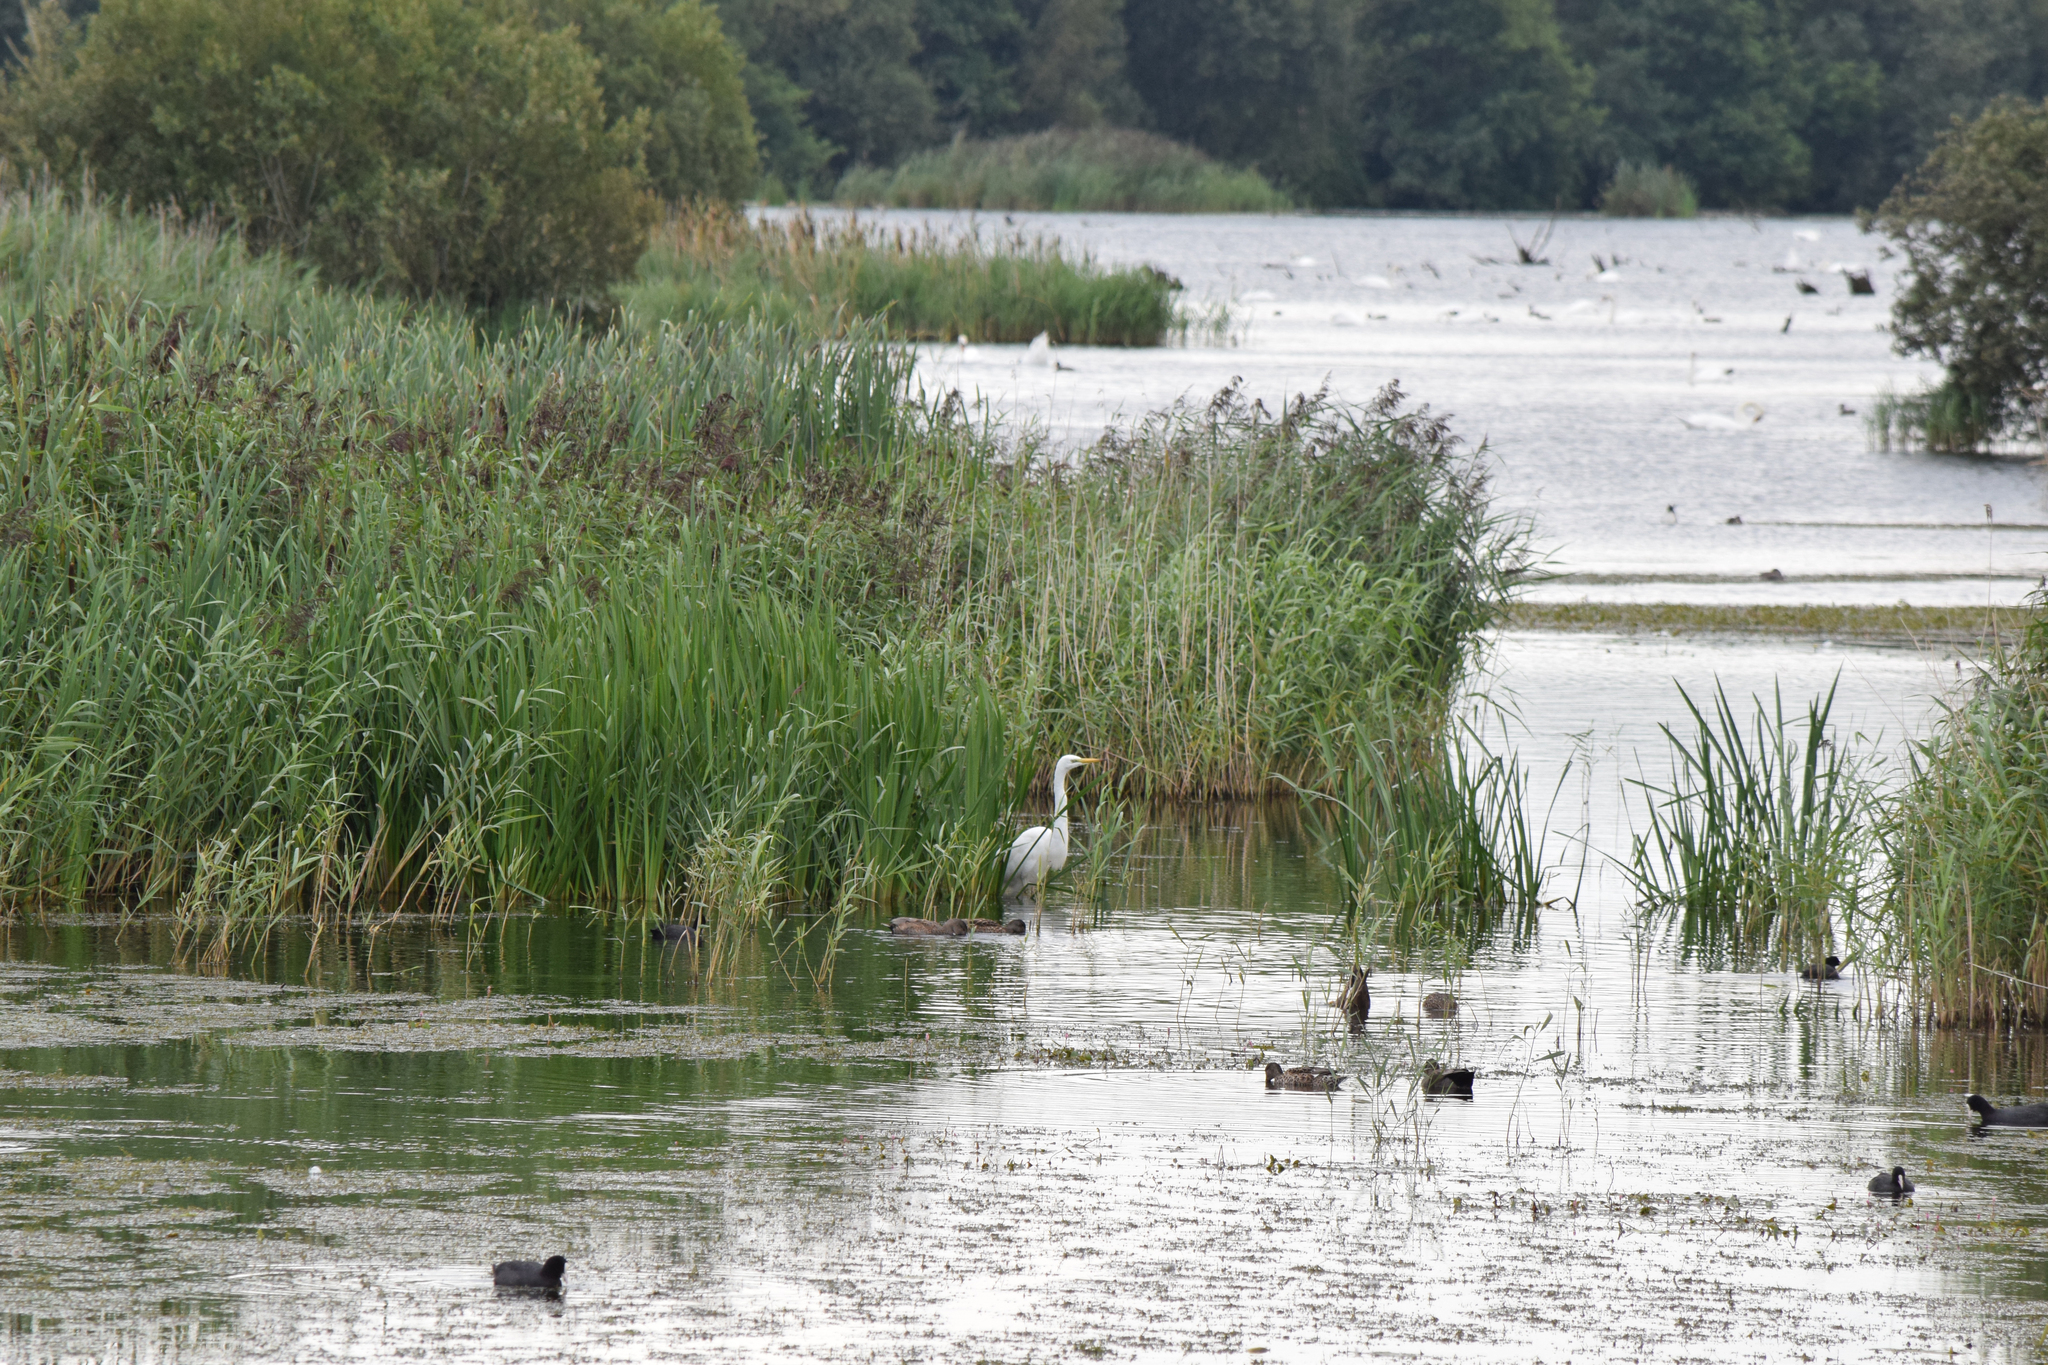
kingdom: Animalia
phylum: Chordata
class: Aves
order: Pelecaniformes
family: Ardeidae
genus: Ardea
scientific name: Ardea alba
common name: Great egret
